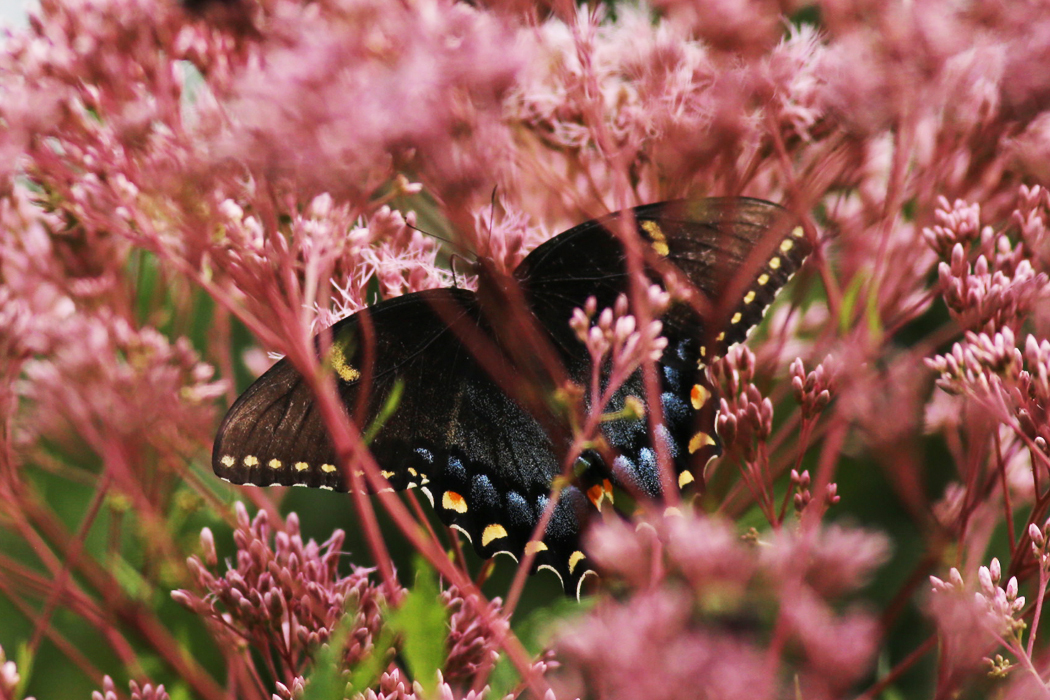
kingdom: Animalia
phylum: Arthropoda
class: Insecta
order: Lepidoptera
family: Papilionidae
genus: Papilio
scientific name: Papilio glaucus
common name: Tiger swallowtail
